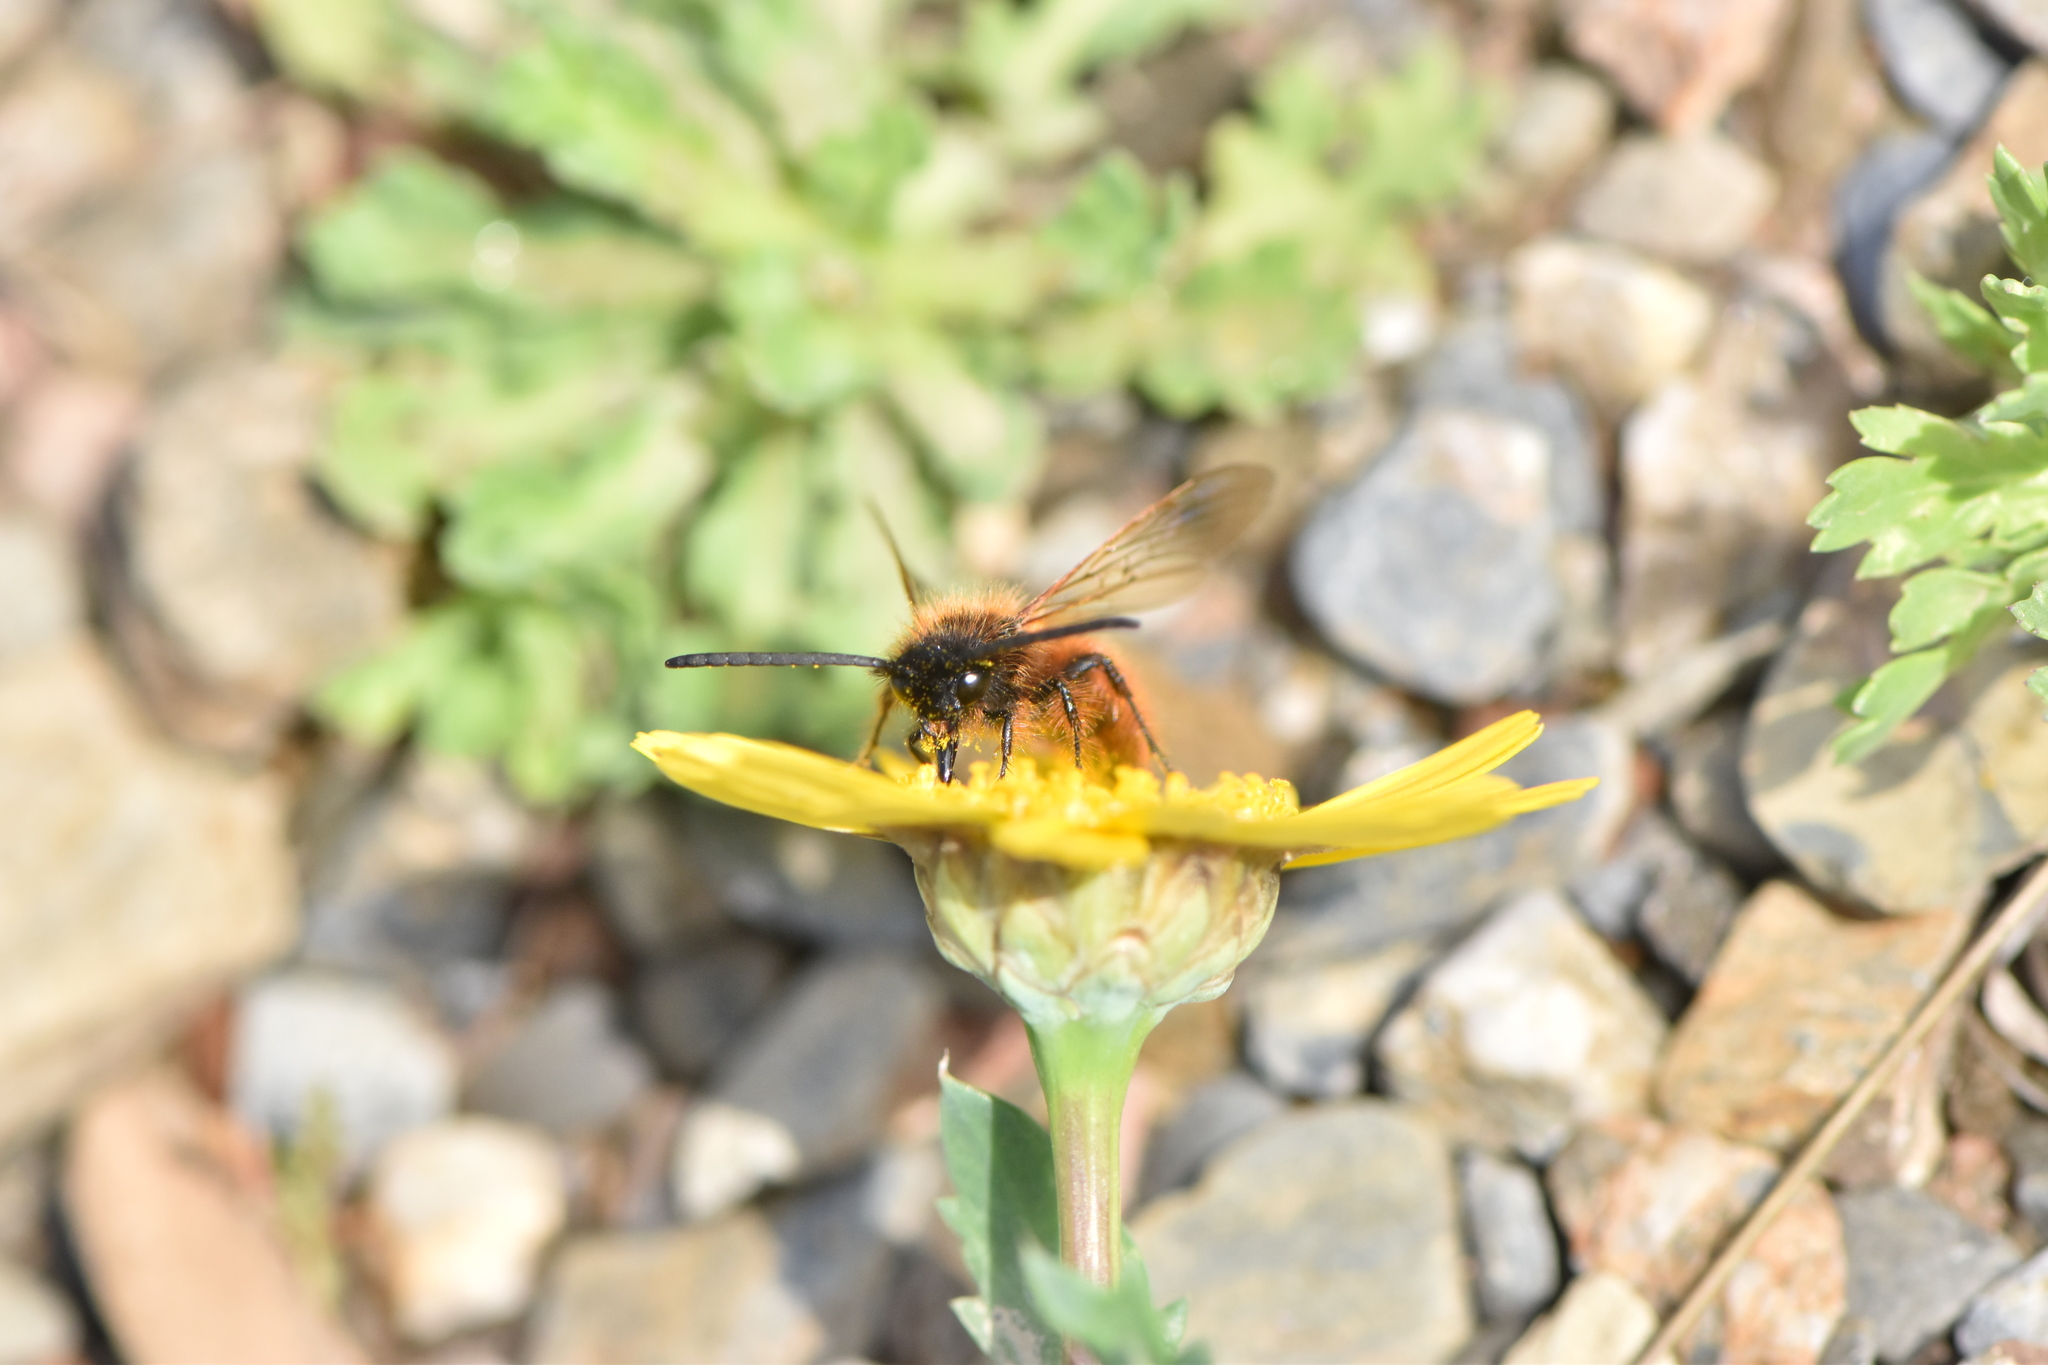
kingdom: Animalia
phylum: Arthropoda
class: Insecta
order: Hymenoptera
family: Scoliidae
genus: Dasyscolia
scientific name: Dasyscolia ciliata
